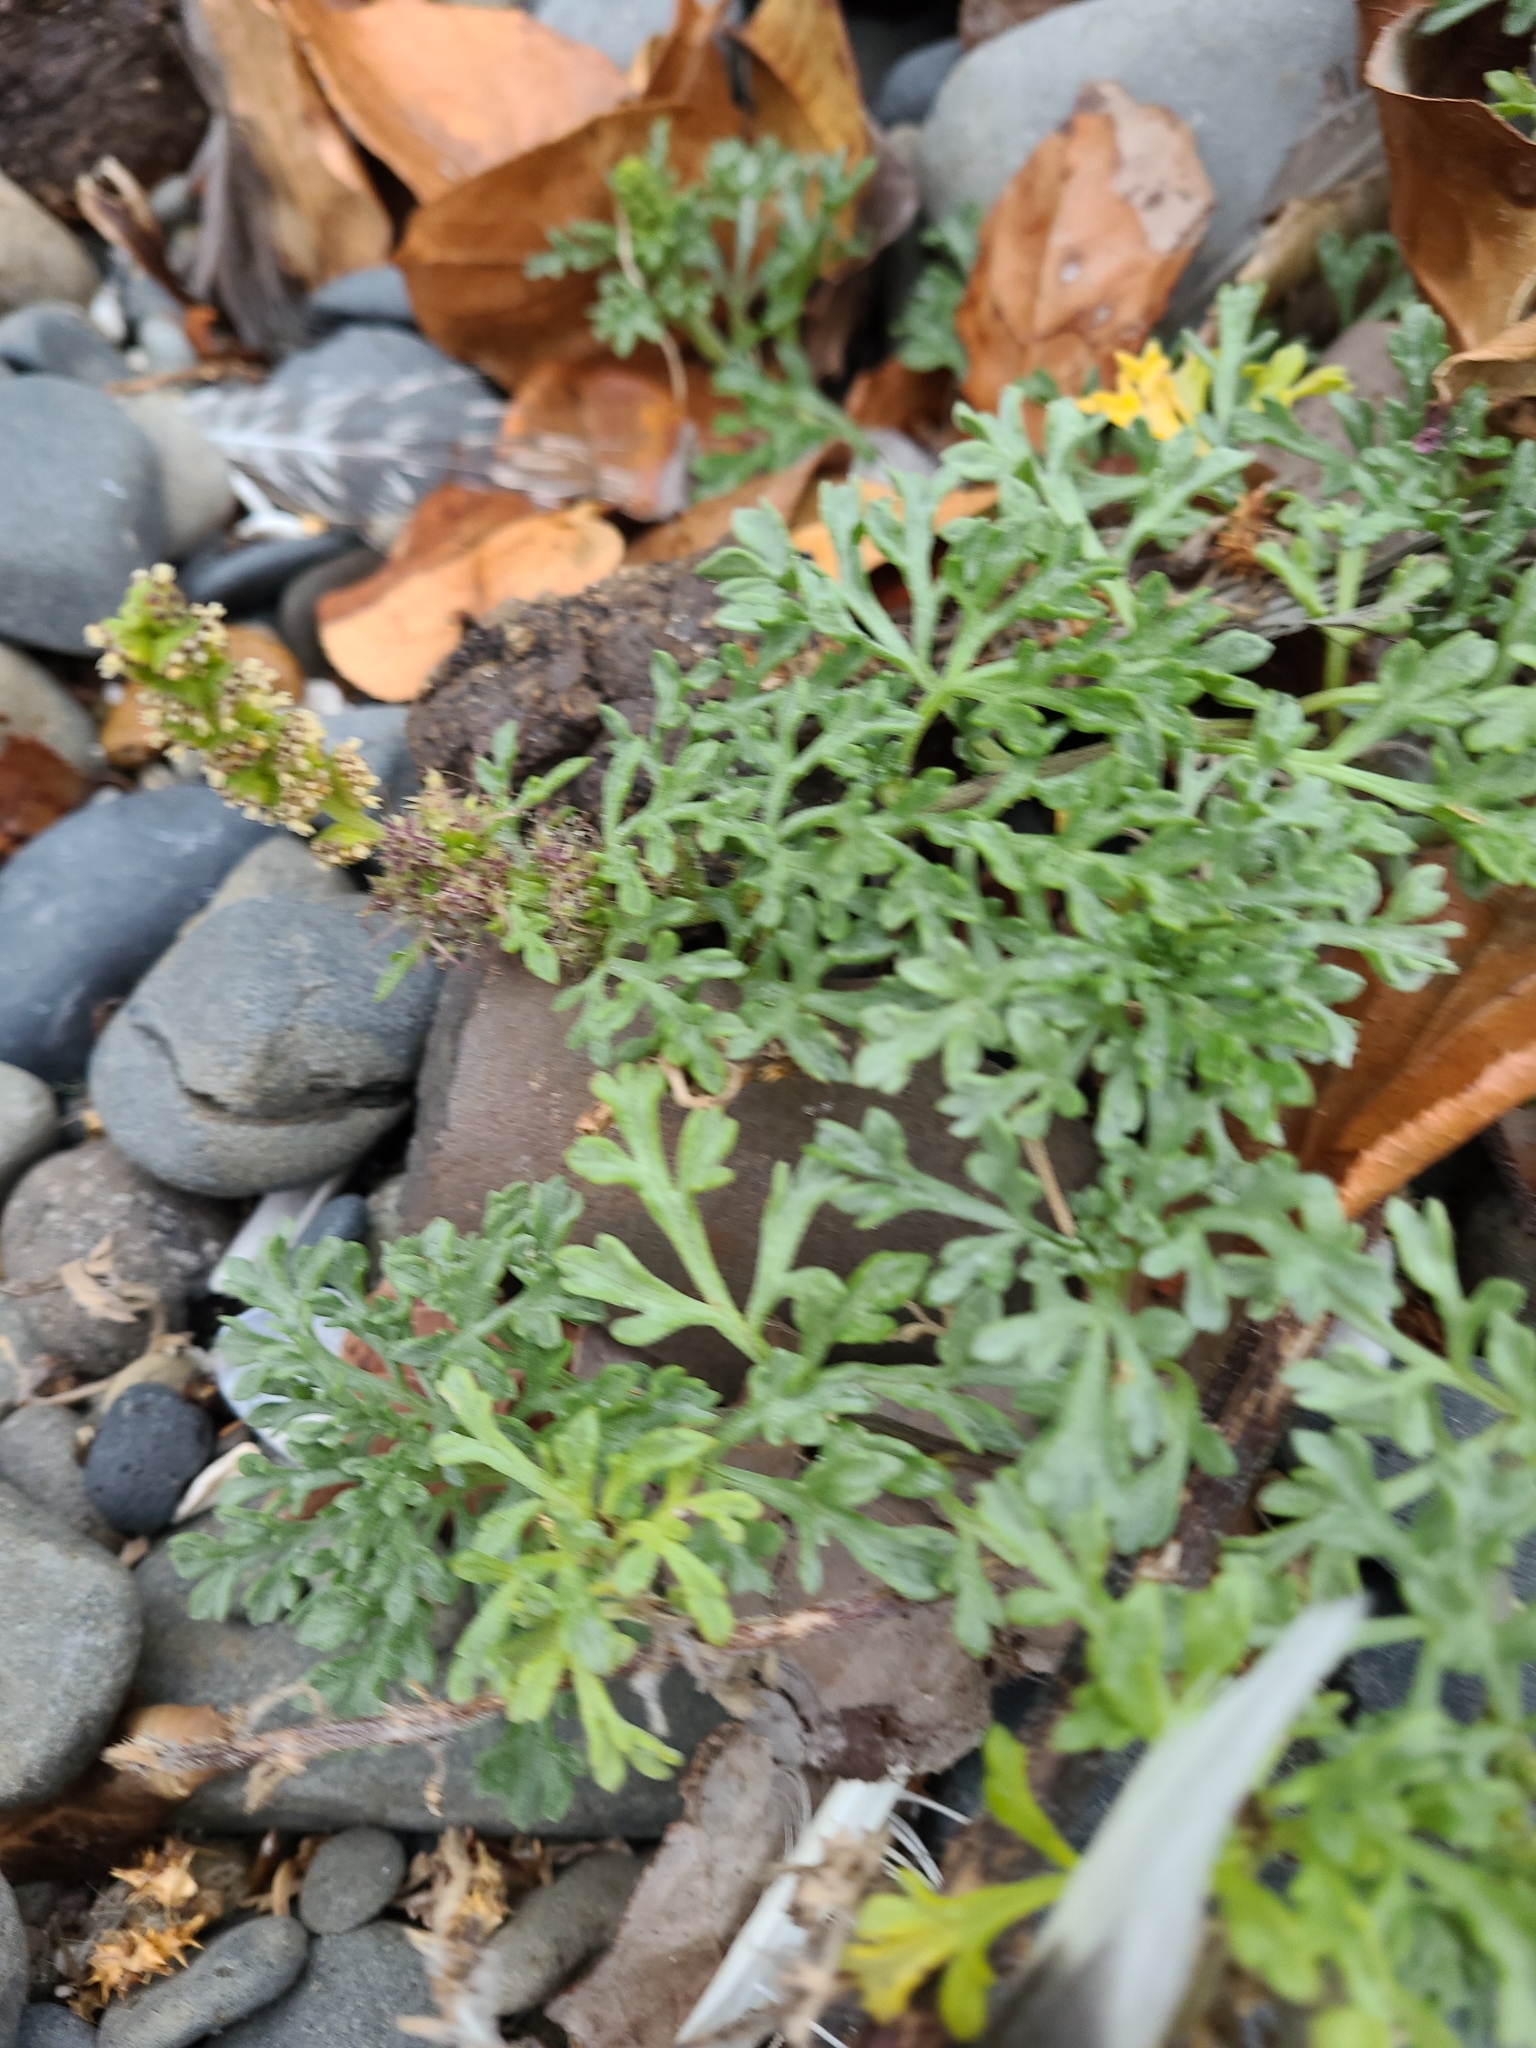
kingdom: Plantae
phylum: Tracheophyta
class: Magnoliopsida
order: Asterales
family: Asteraceae
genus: Ambrosia
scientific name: Ambrosia chamissonis
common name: Beachbur
